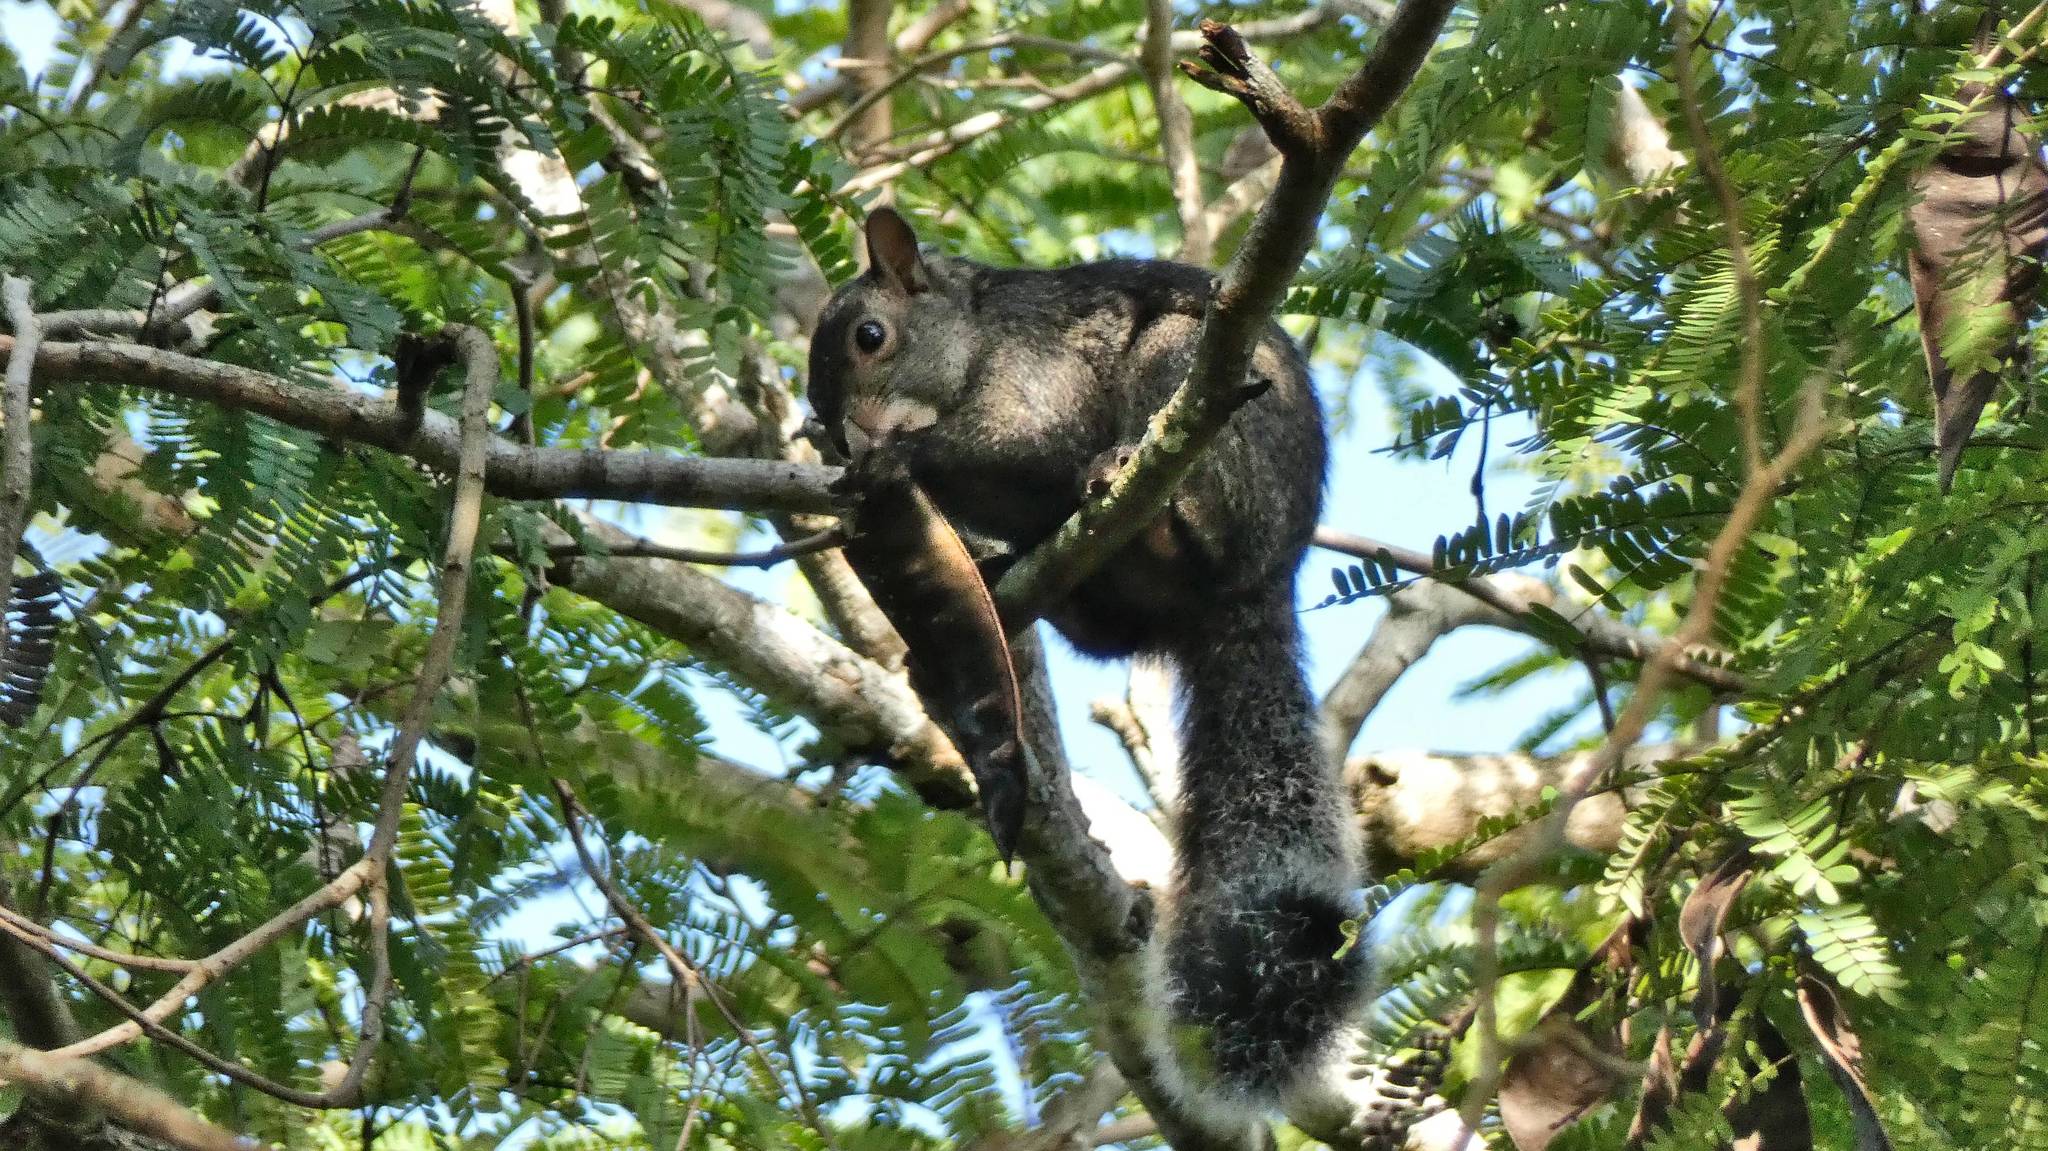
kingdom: Animalia
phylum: Chordata
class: Mammalia
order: Rodentia
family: Sciuridae
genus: Sciurus
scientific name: Sciurus yucatanensis
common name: Yucatan squirrel
